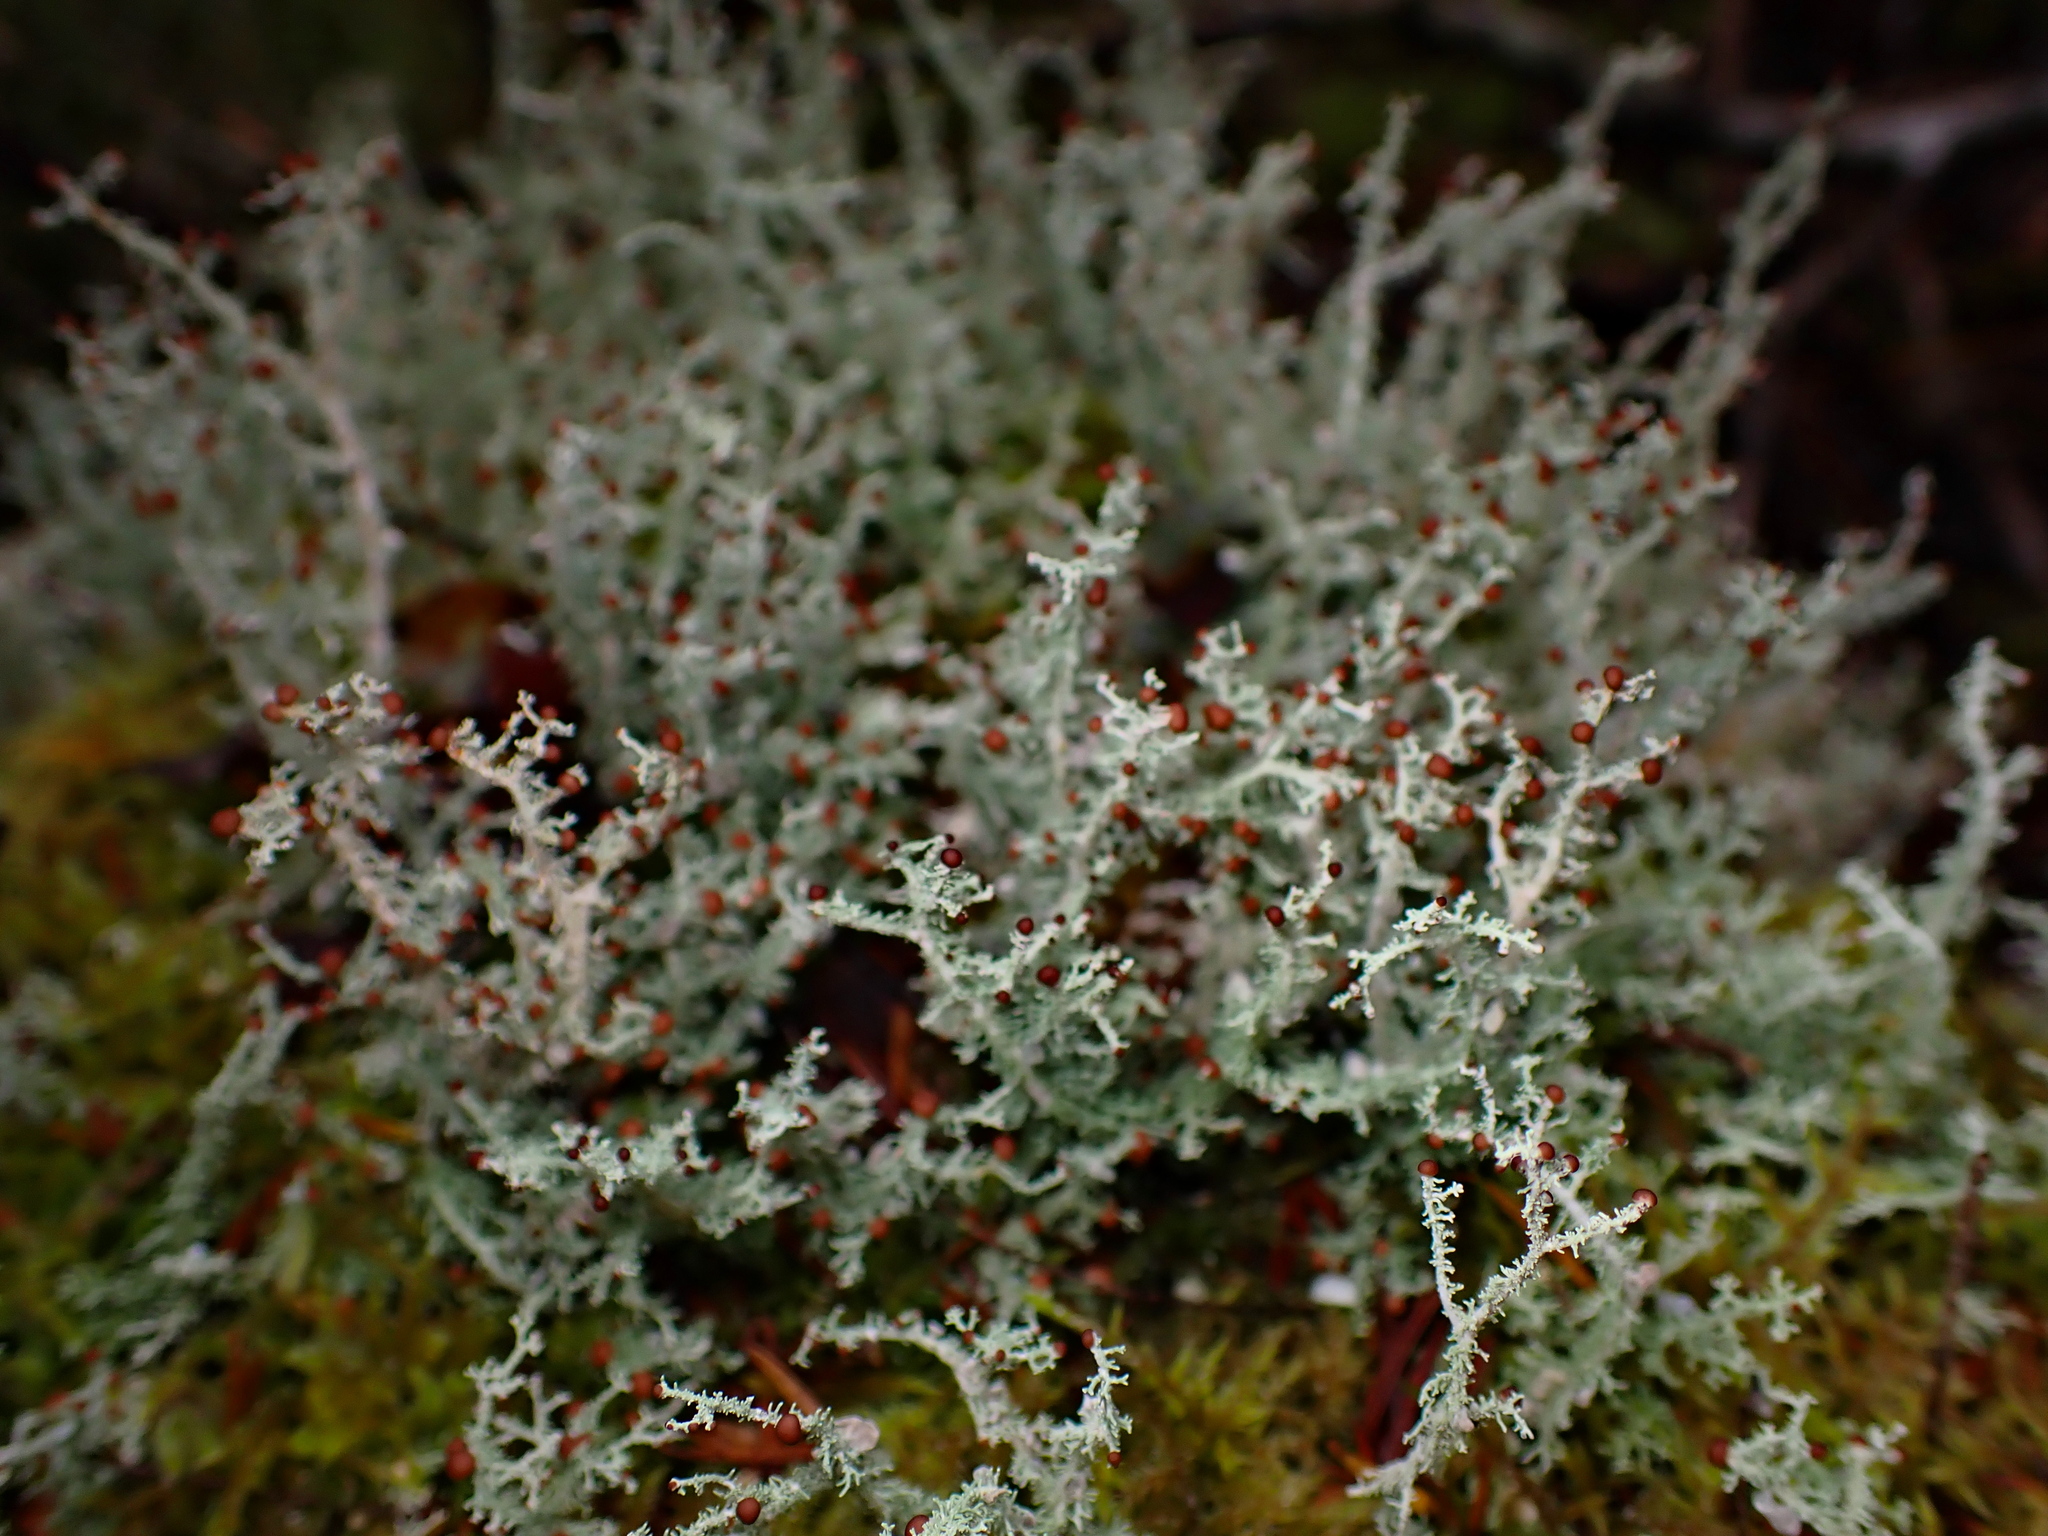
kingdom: Fungi
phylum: Ascomycota
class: Lecanoromycetes
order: Lecanorales
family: Stereocaulaceae
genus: Stereocaulon
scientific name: Stereocaulon ramulosum
